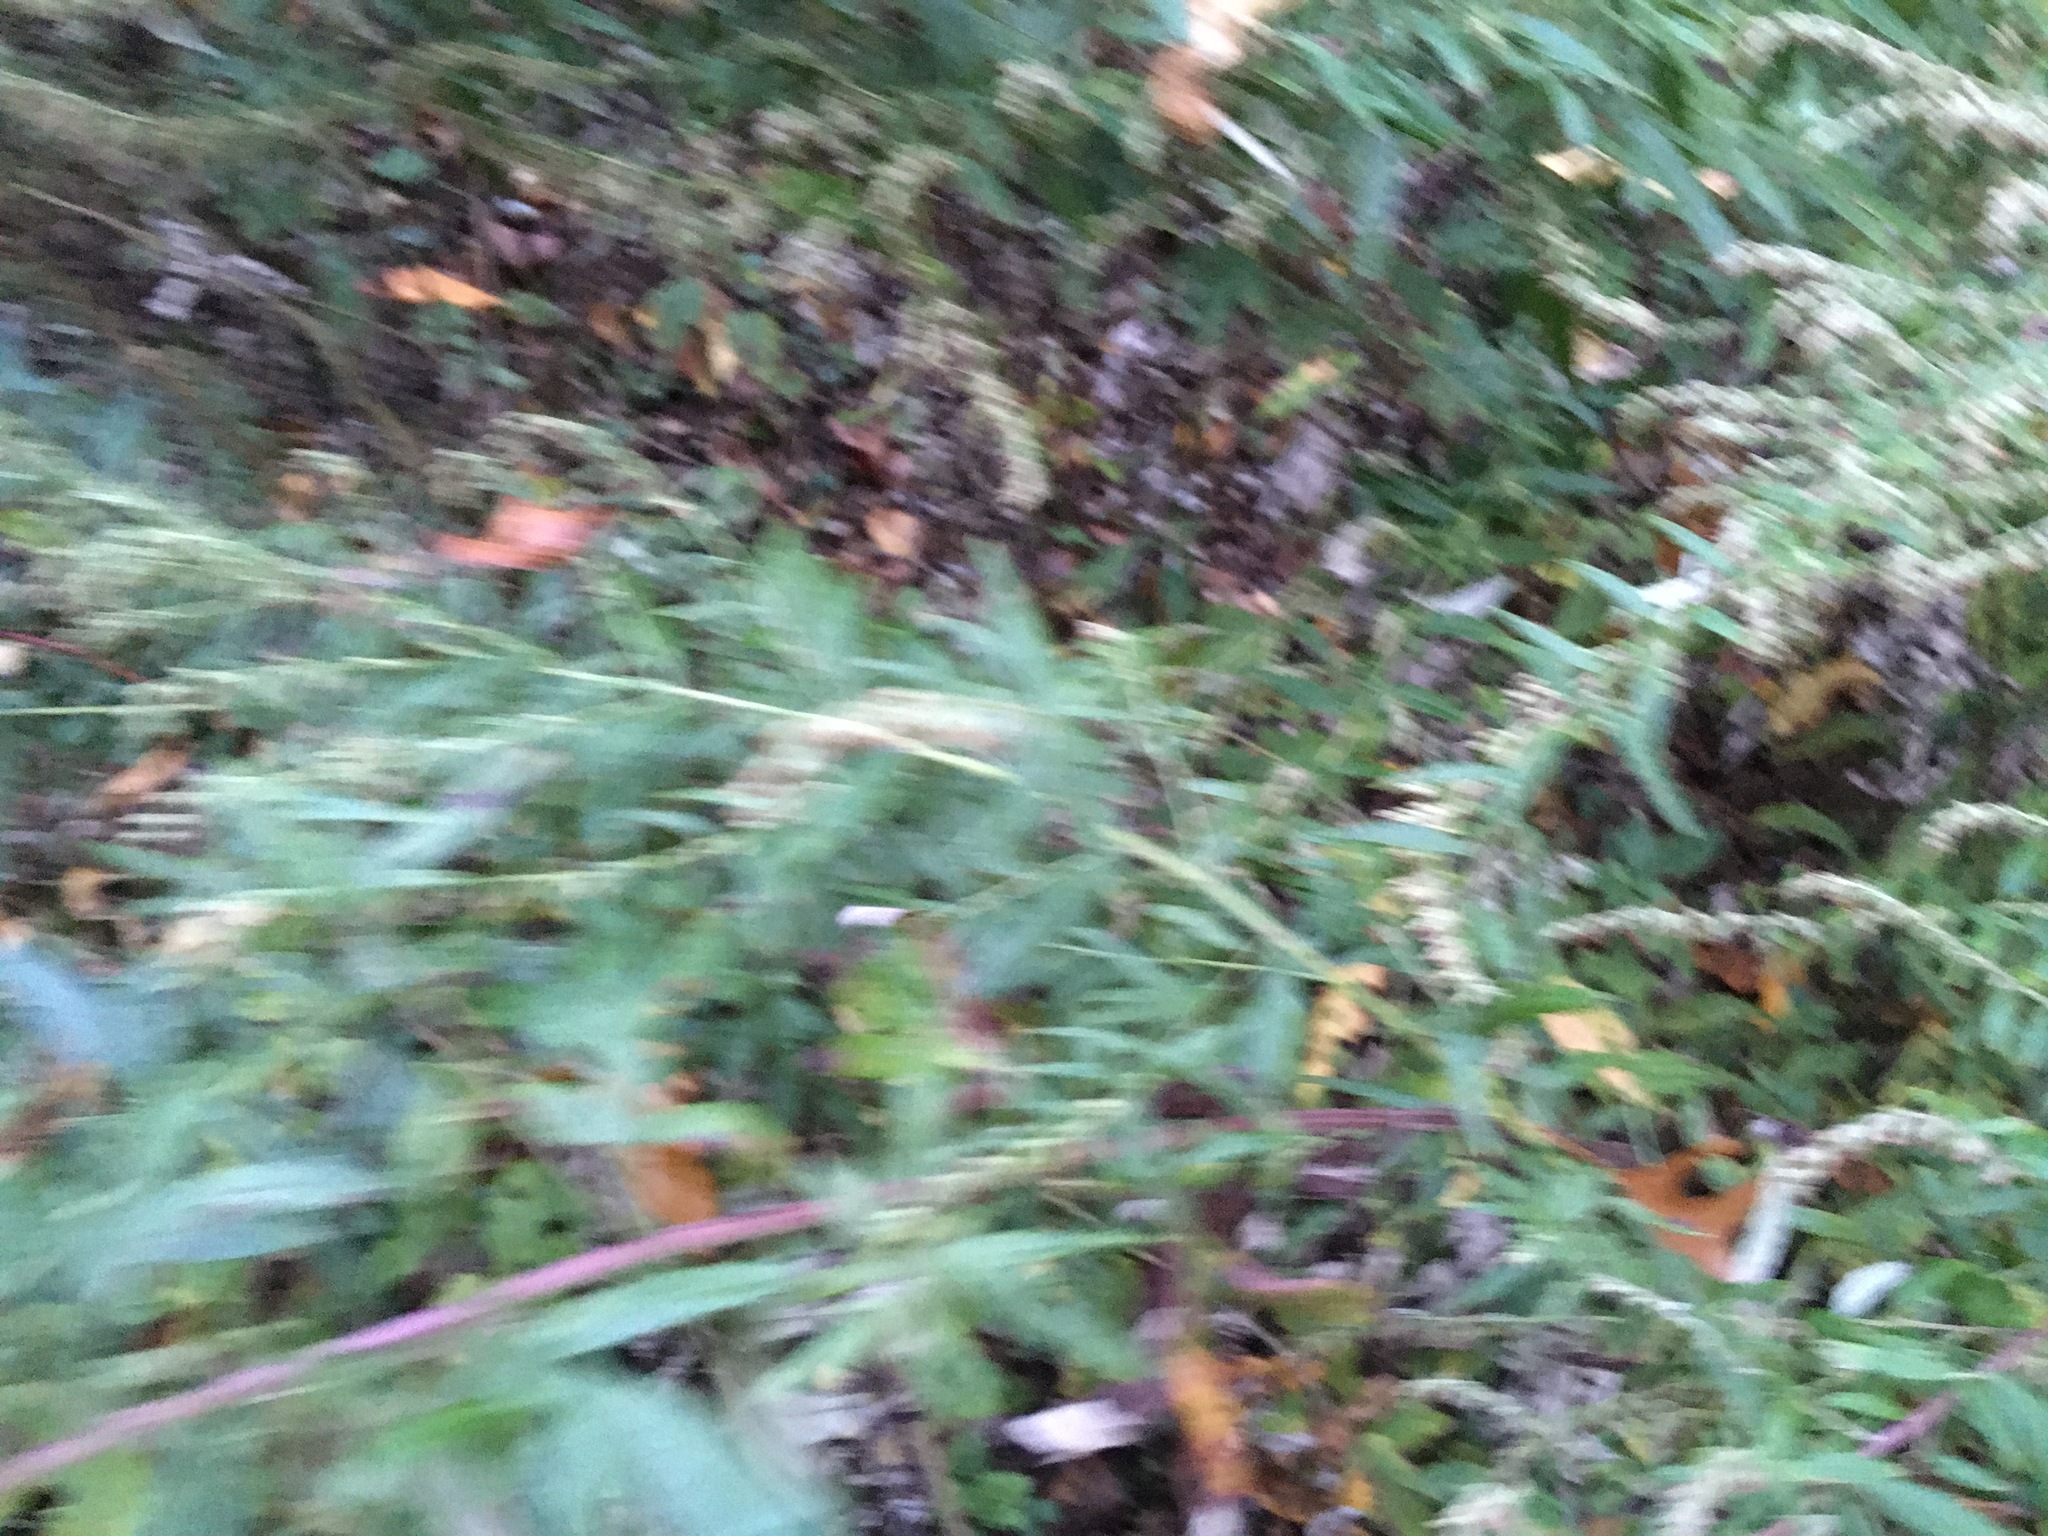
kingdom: Plantae
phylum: Tracheophyta
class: Magnoliopsida
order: Asterales
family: Asteraceae
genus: Artemisia
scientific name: Artemisia vulgaris
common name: Mugwort
